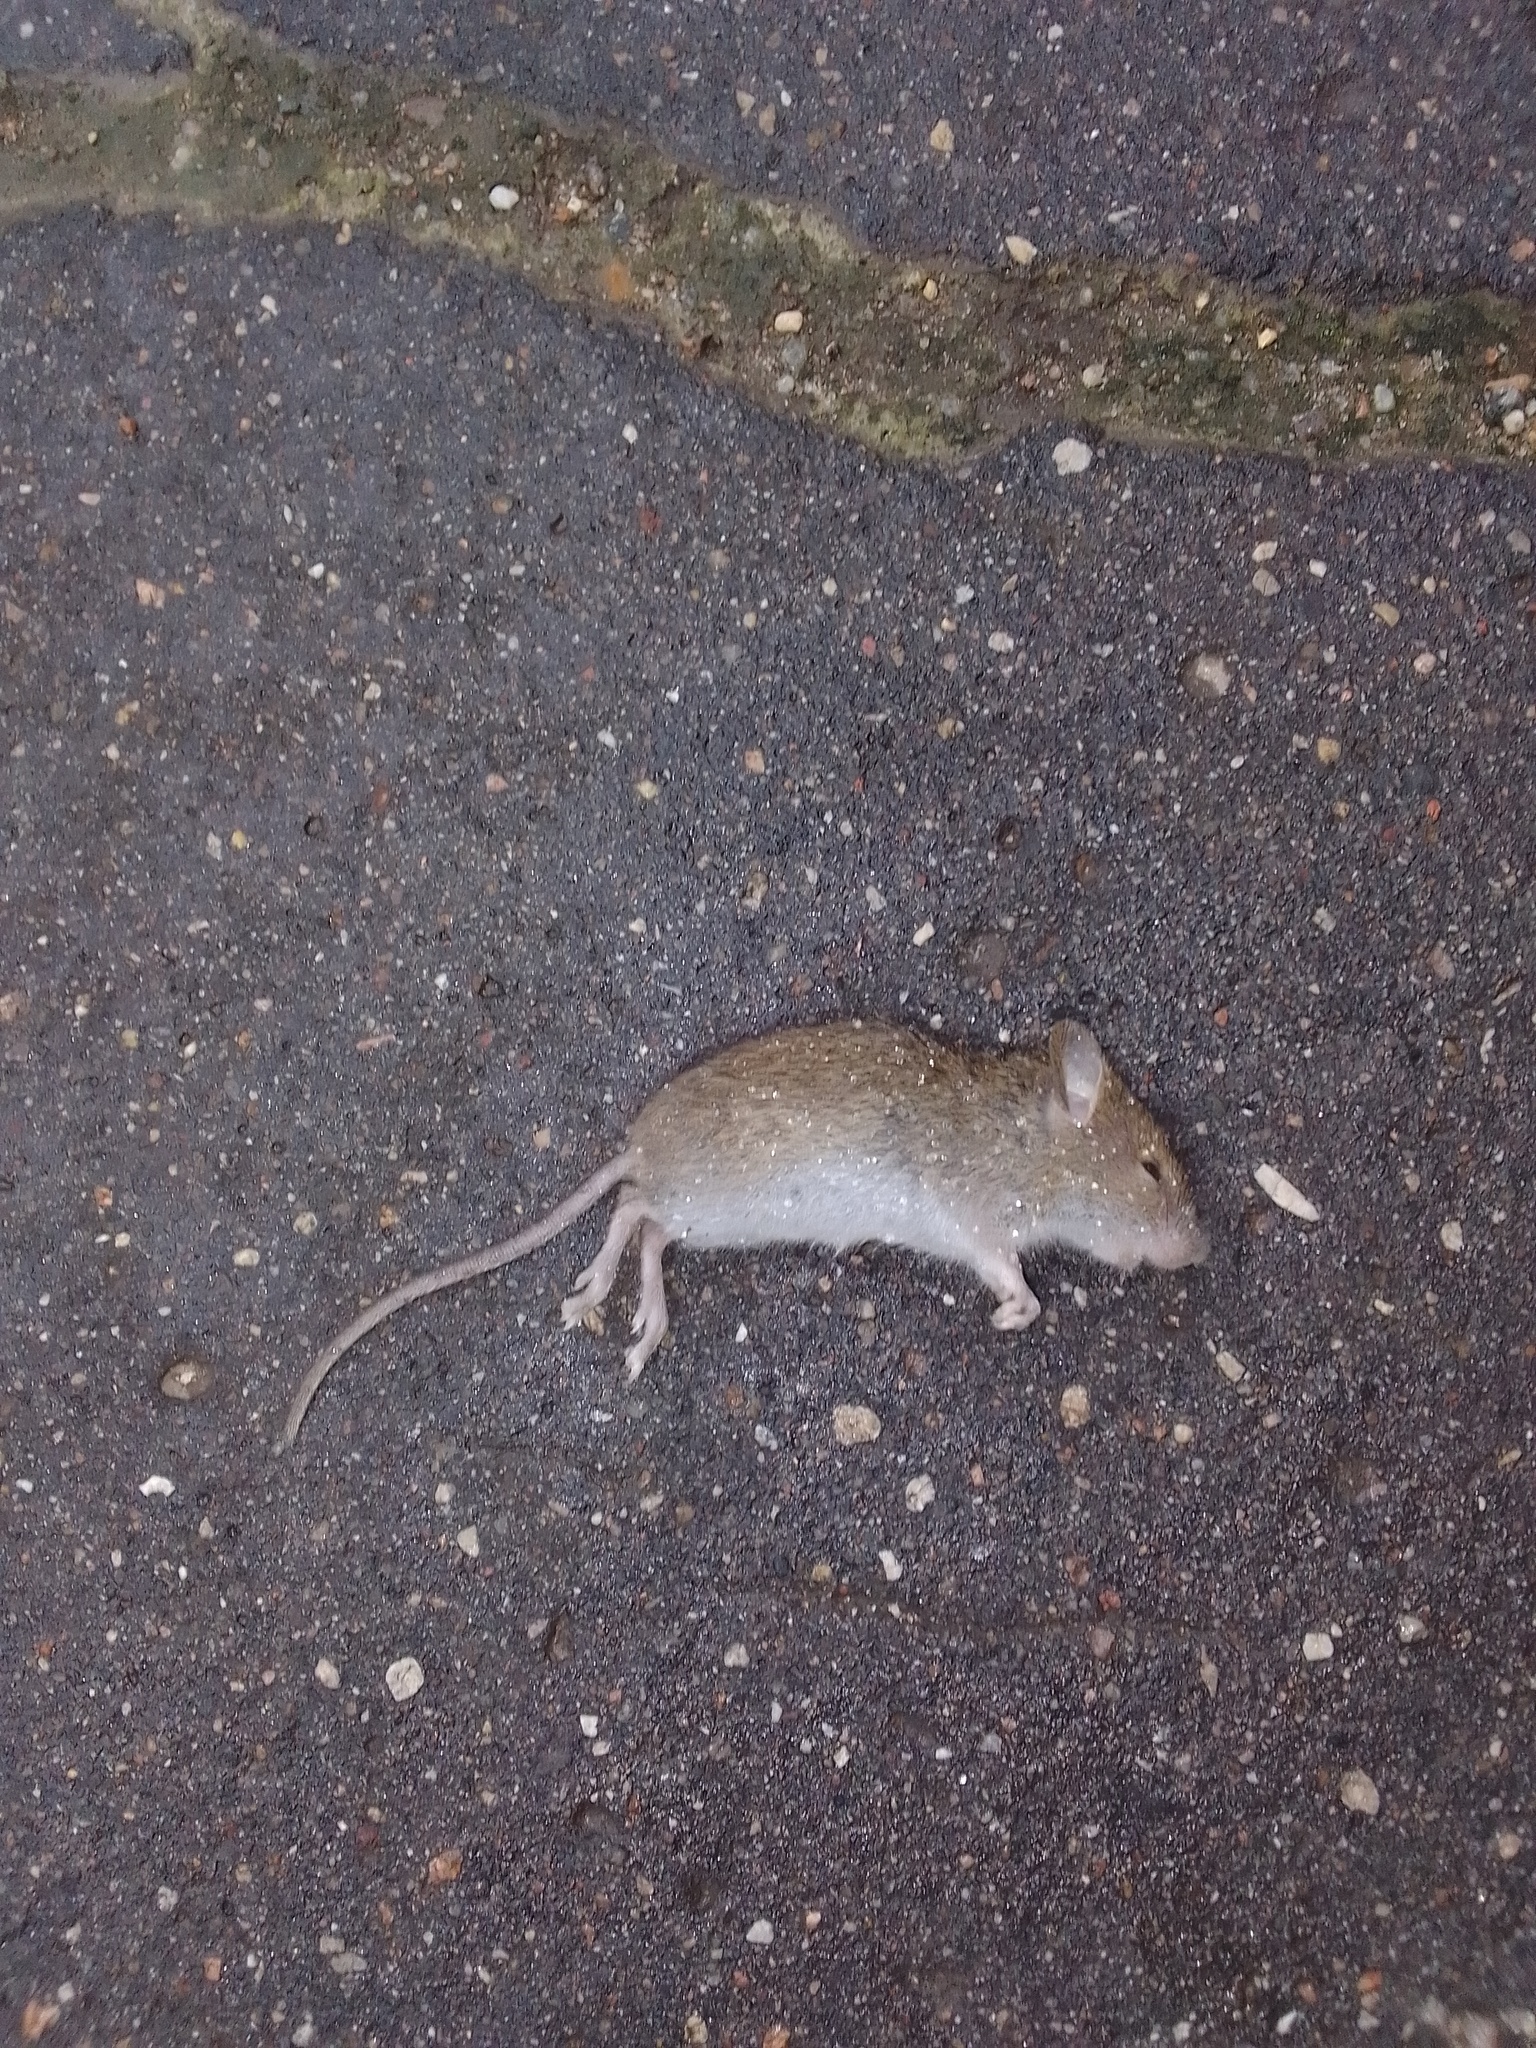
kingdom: Animalia
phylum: Chordata
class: Mammalia
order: Rodentia
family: Muridae
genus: Apodemus
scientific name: Apodemus agrarius
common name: Striped field mouse
